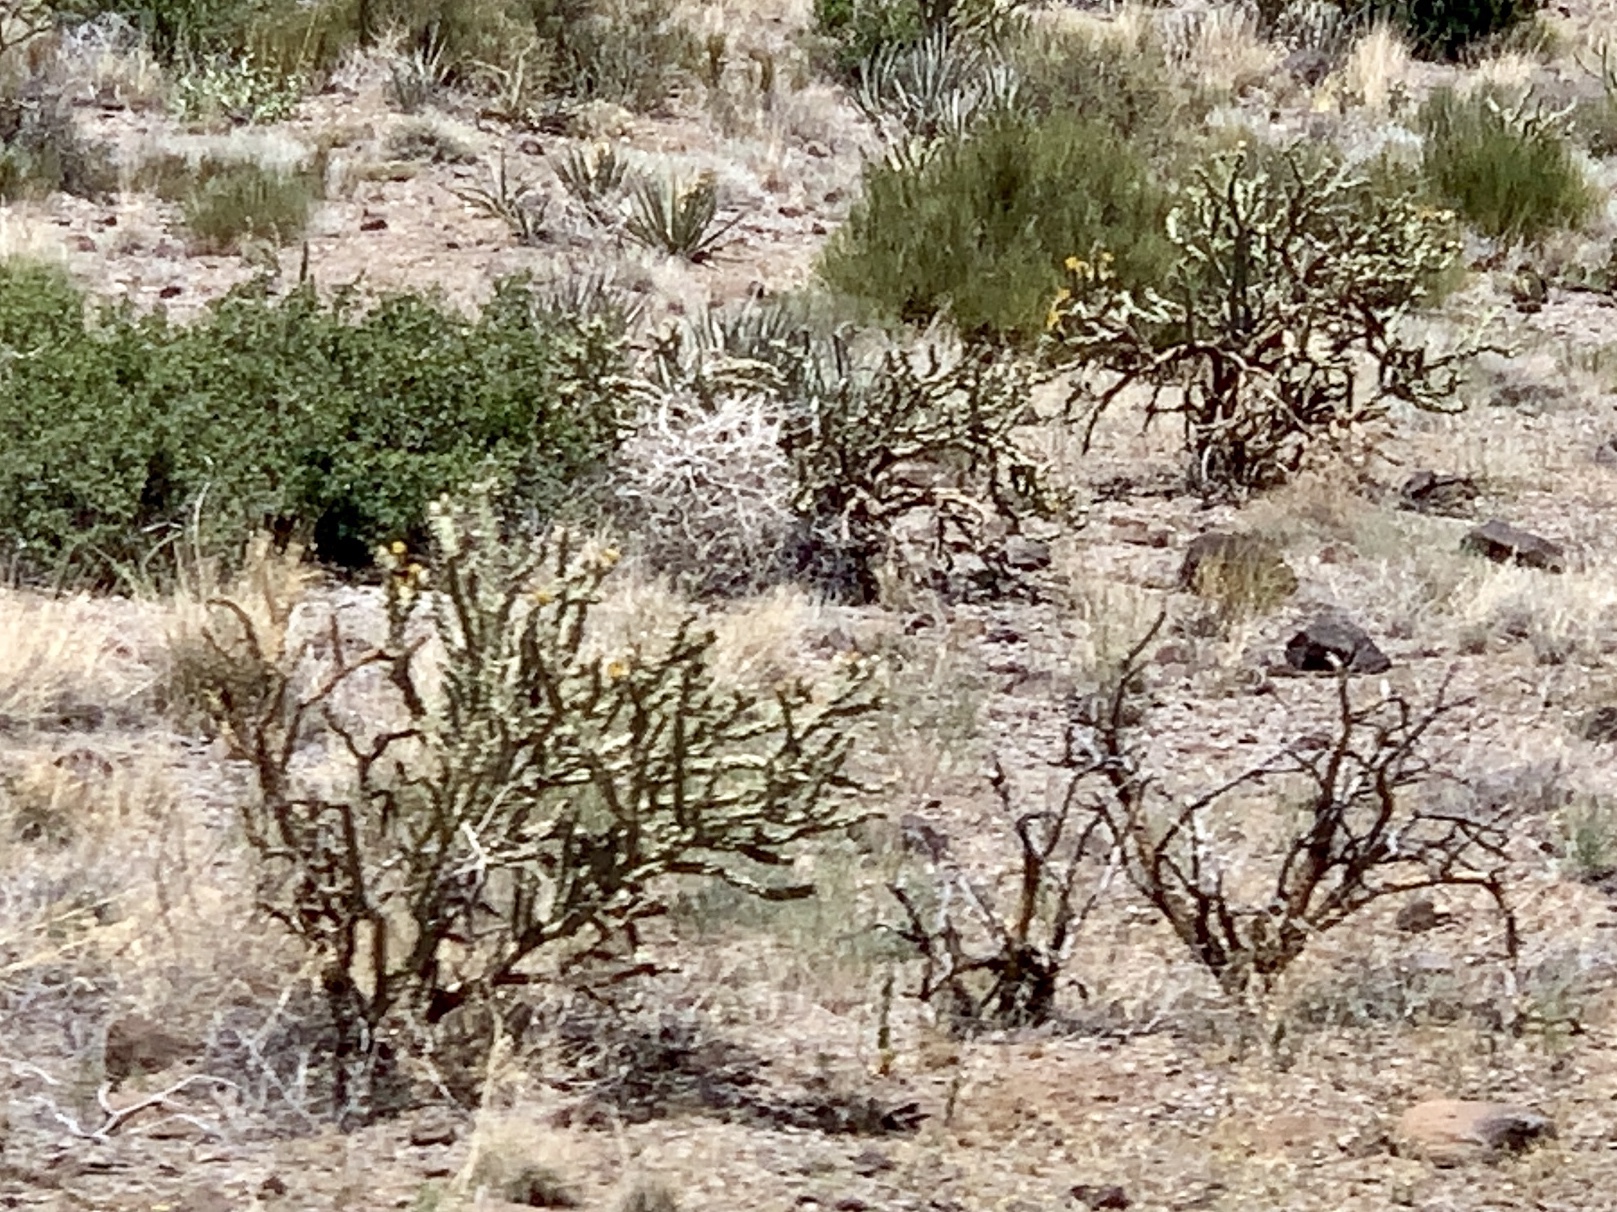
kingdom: Plantae
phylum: Tracheophyta
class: Magnoliopsida
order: Caryophyllales
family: Cactaceae
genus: Cylindropuntia
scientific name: Cylindropuntia acanthocarpa
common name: Buckhorn cholla
